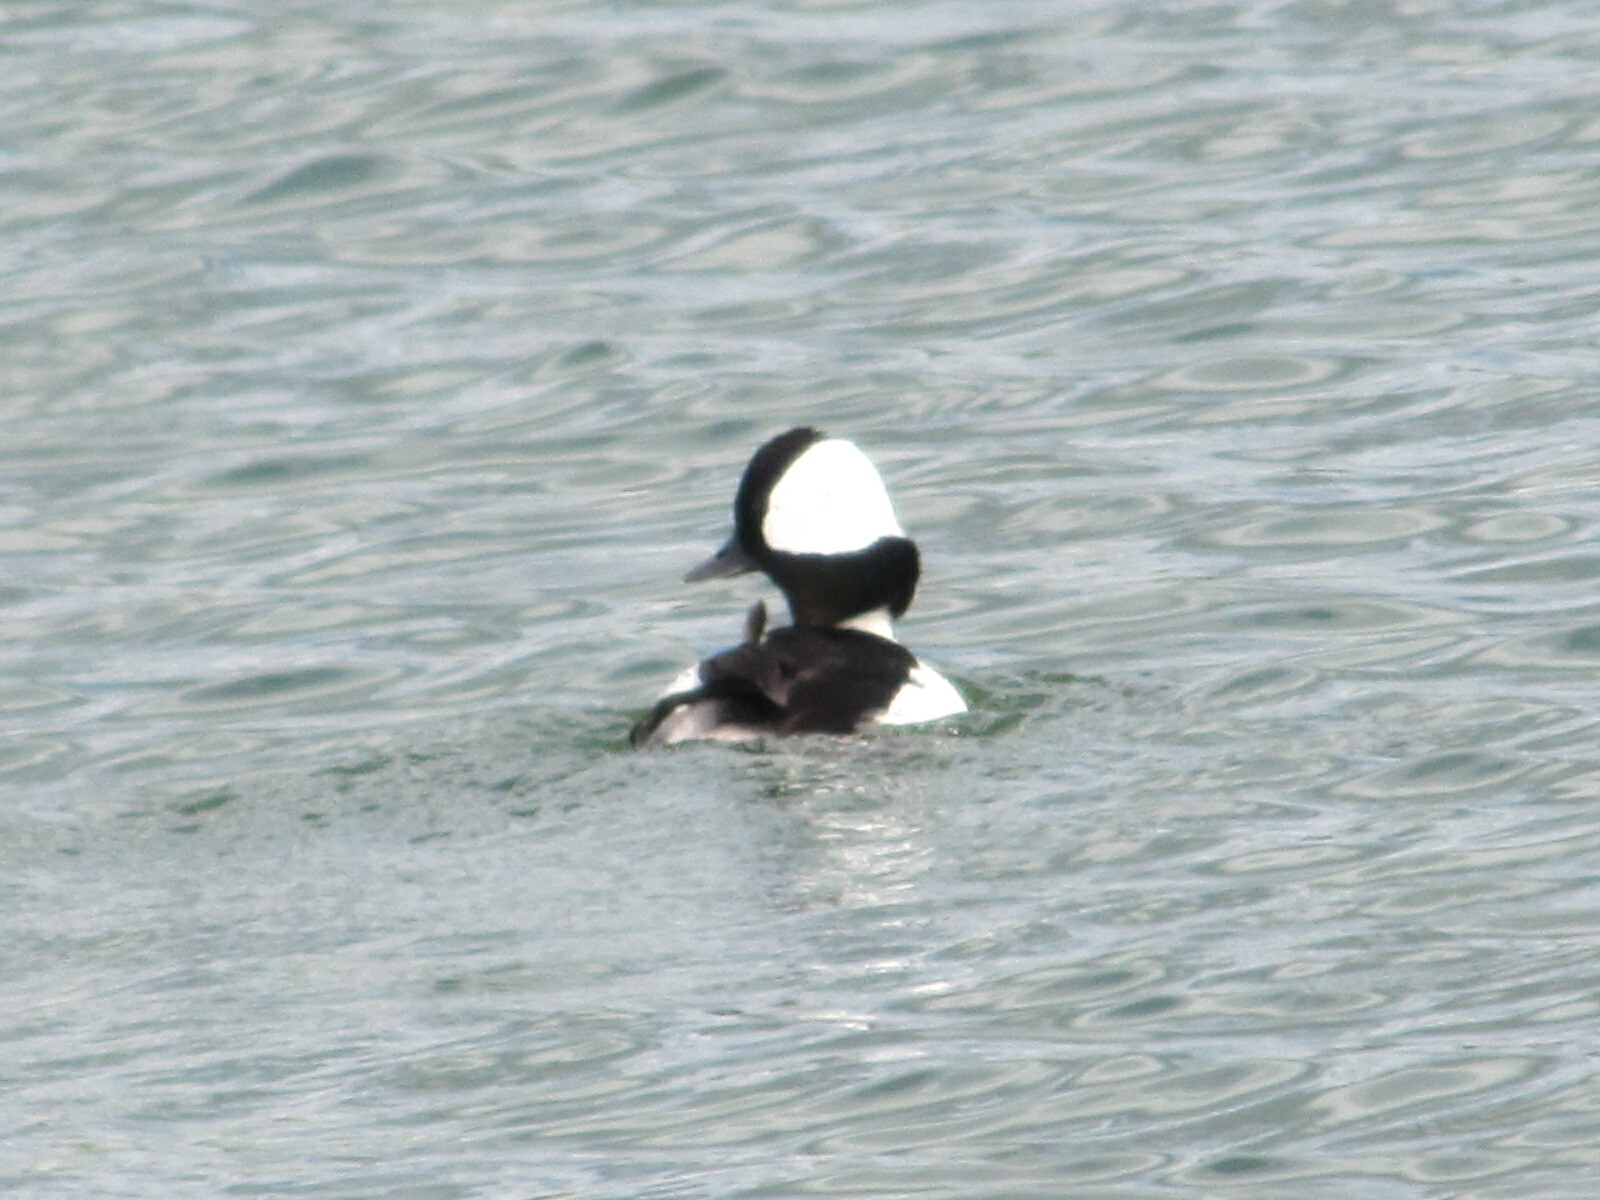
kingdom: Animalia
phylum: Chordata
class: Aves
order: Anseriformes
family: Anatidae
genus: Bucephala
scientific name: Bucephala albeola
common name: Bufflehead
